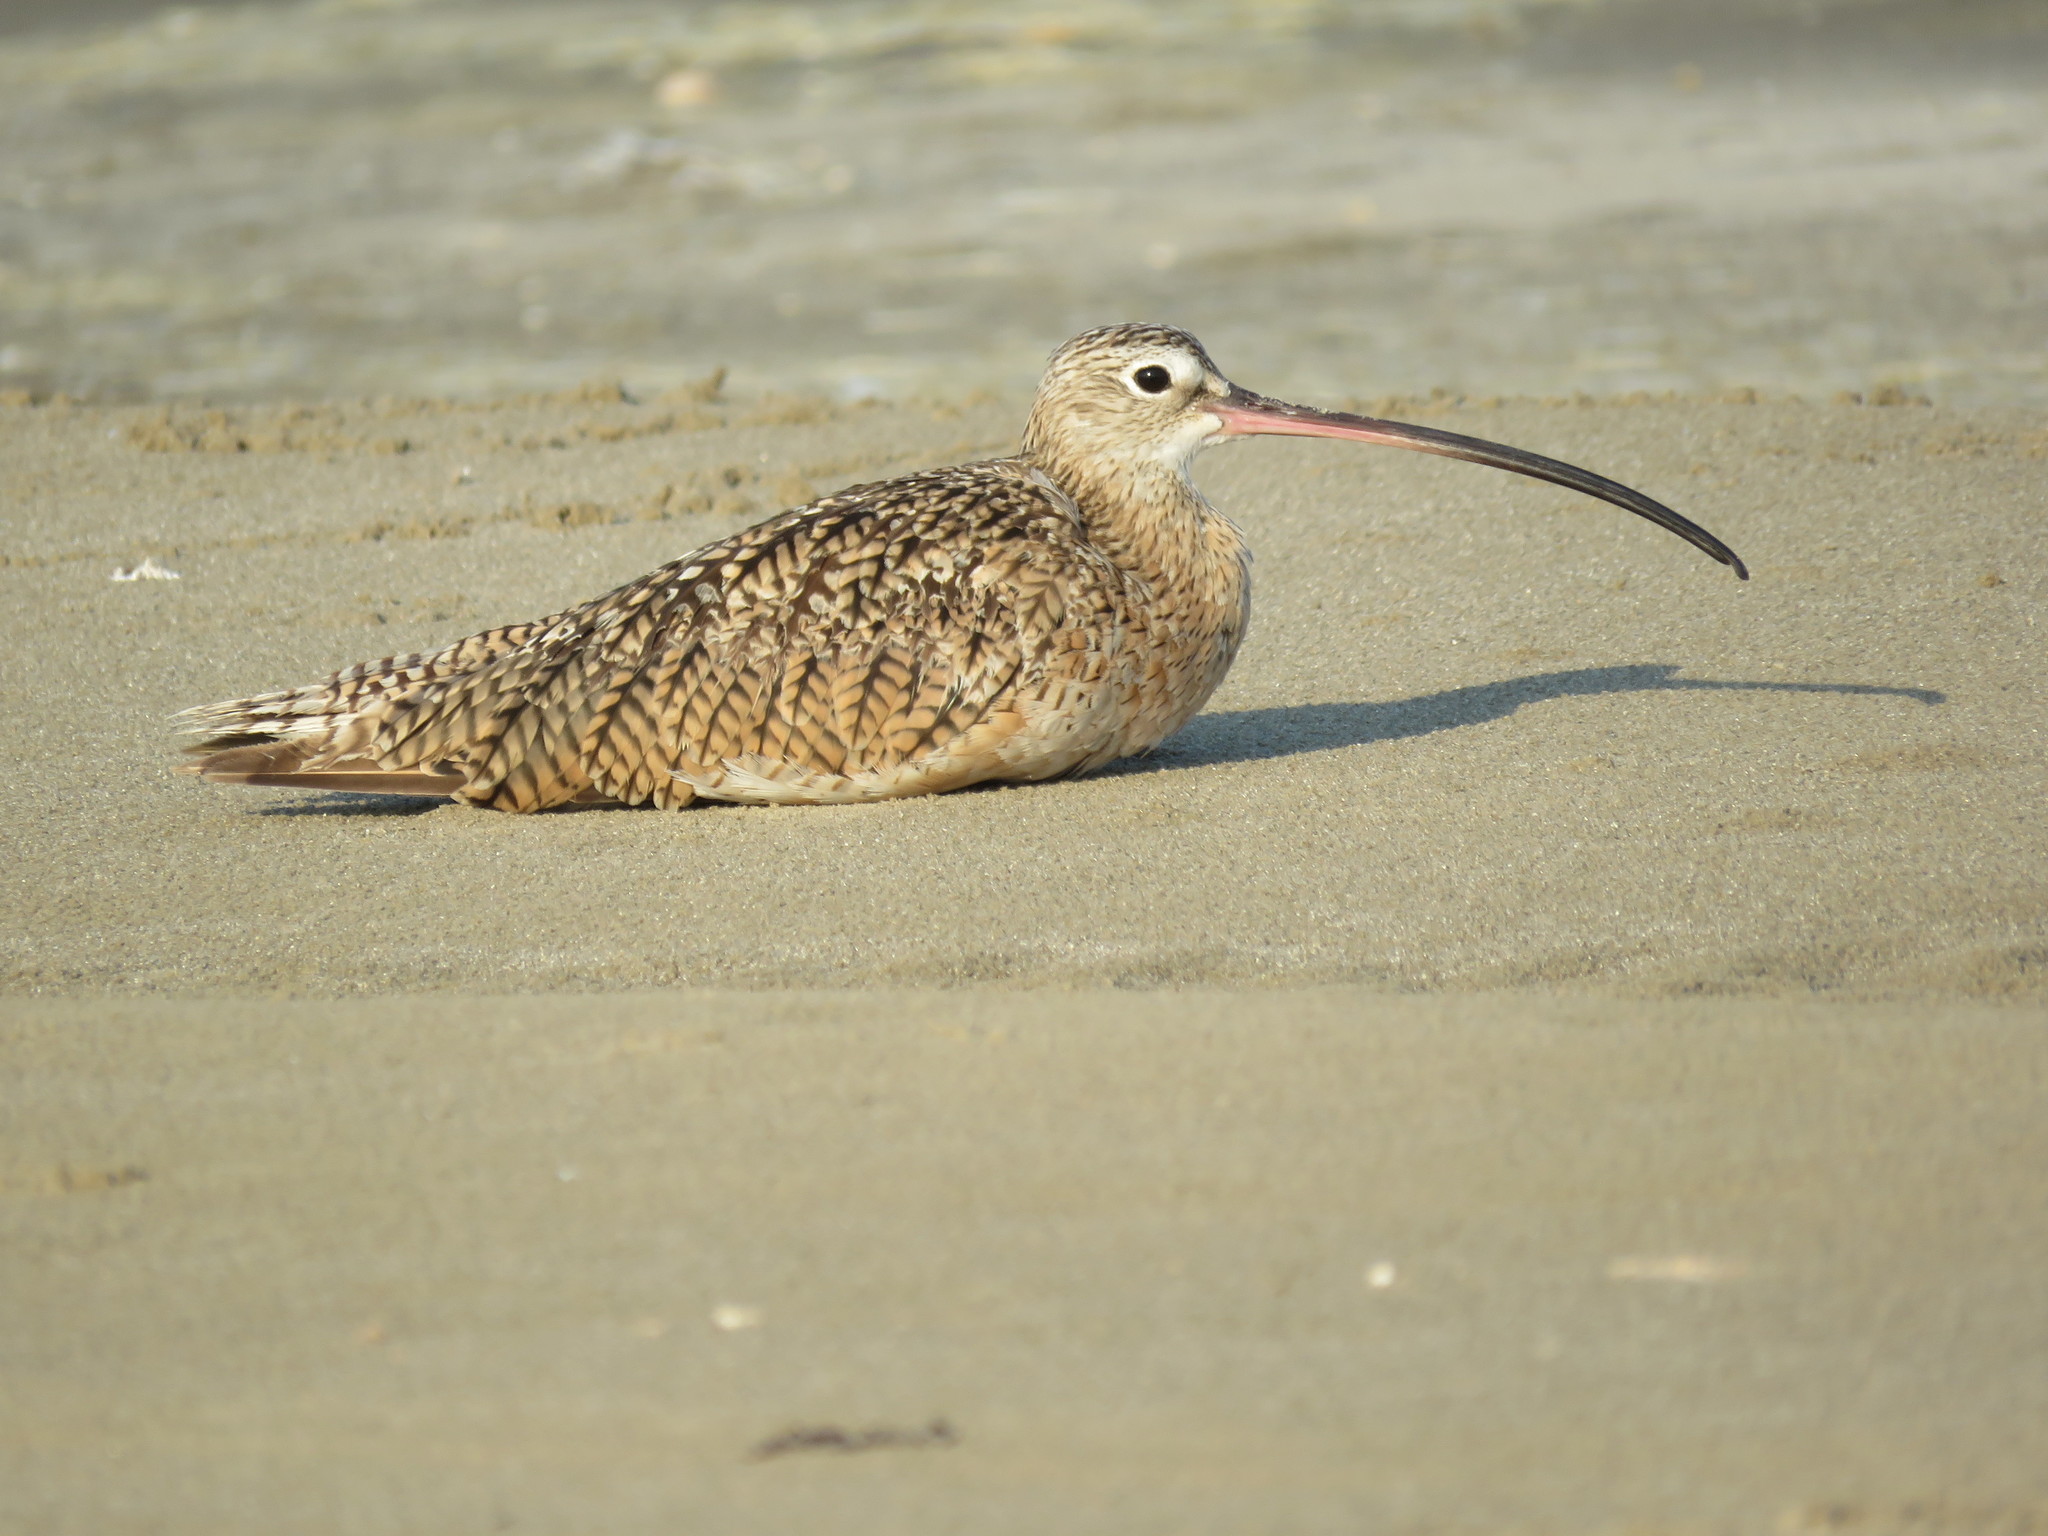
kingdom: Animalia
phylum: Chordata
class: Aves
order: Charadriiformes
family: Scolopacidae
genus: Limosa
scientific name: Limosa fedoa
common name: Marbled godwit
